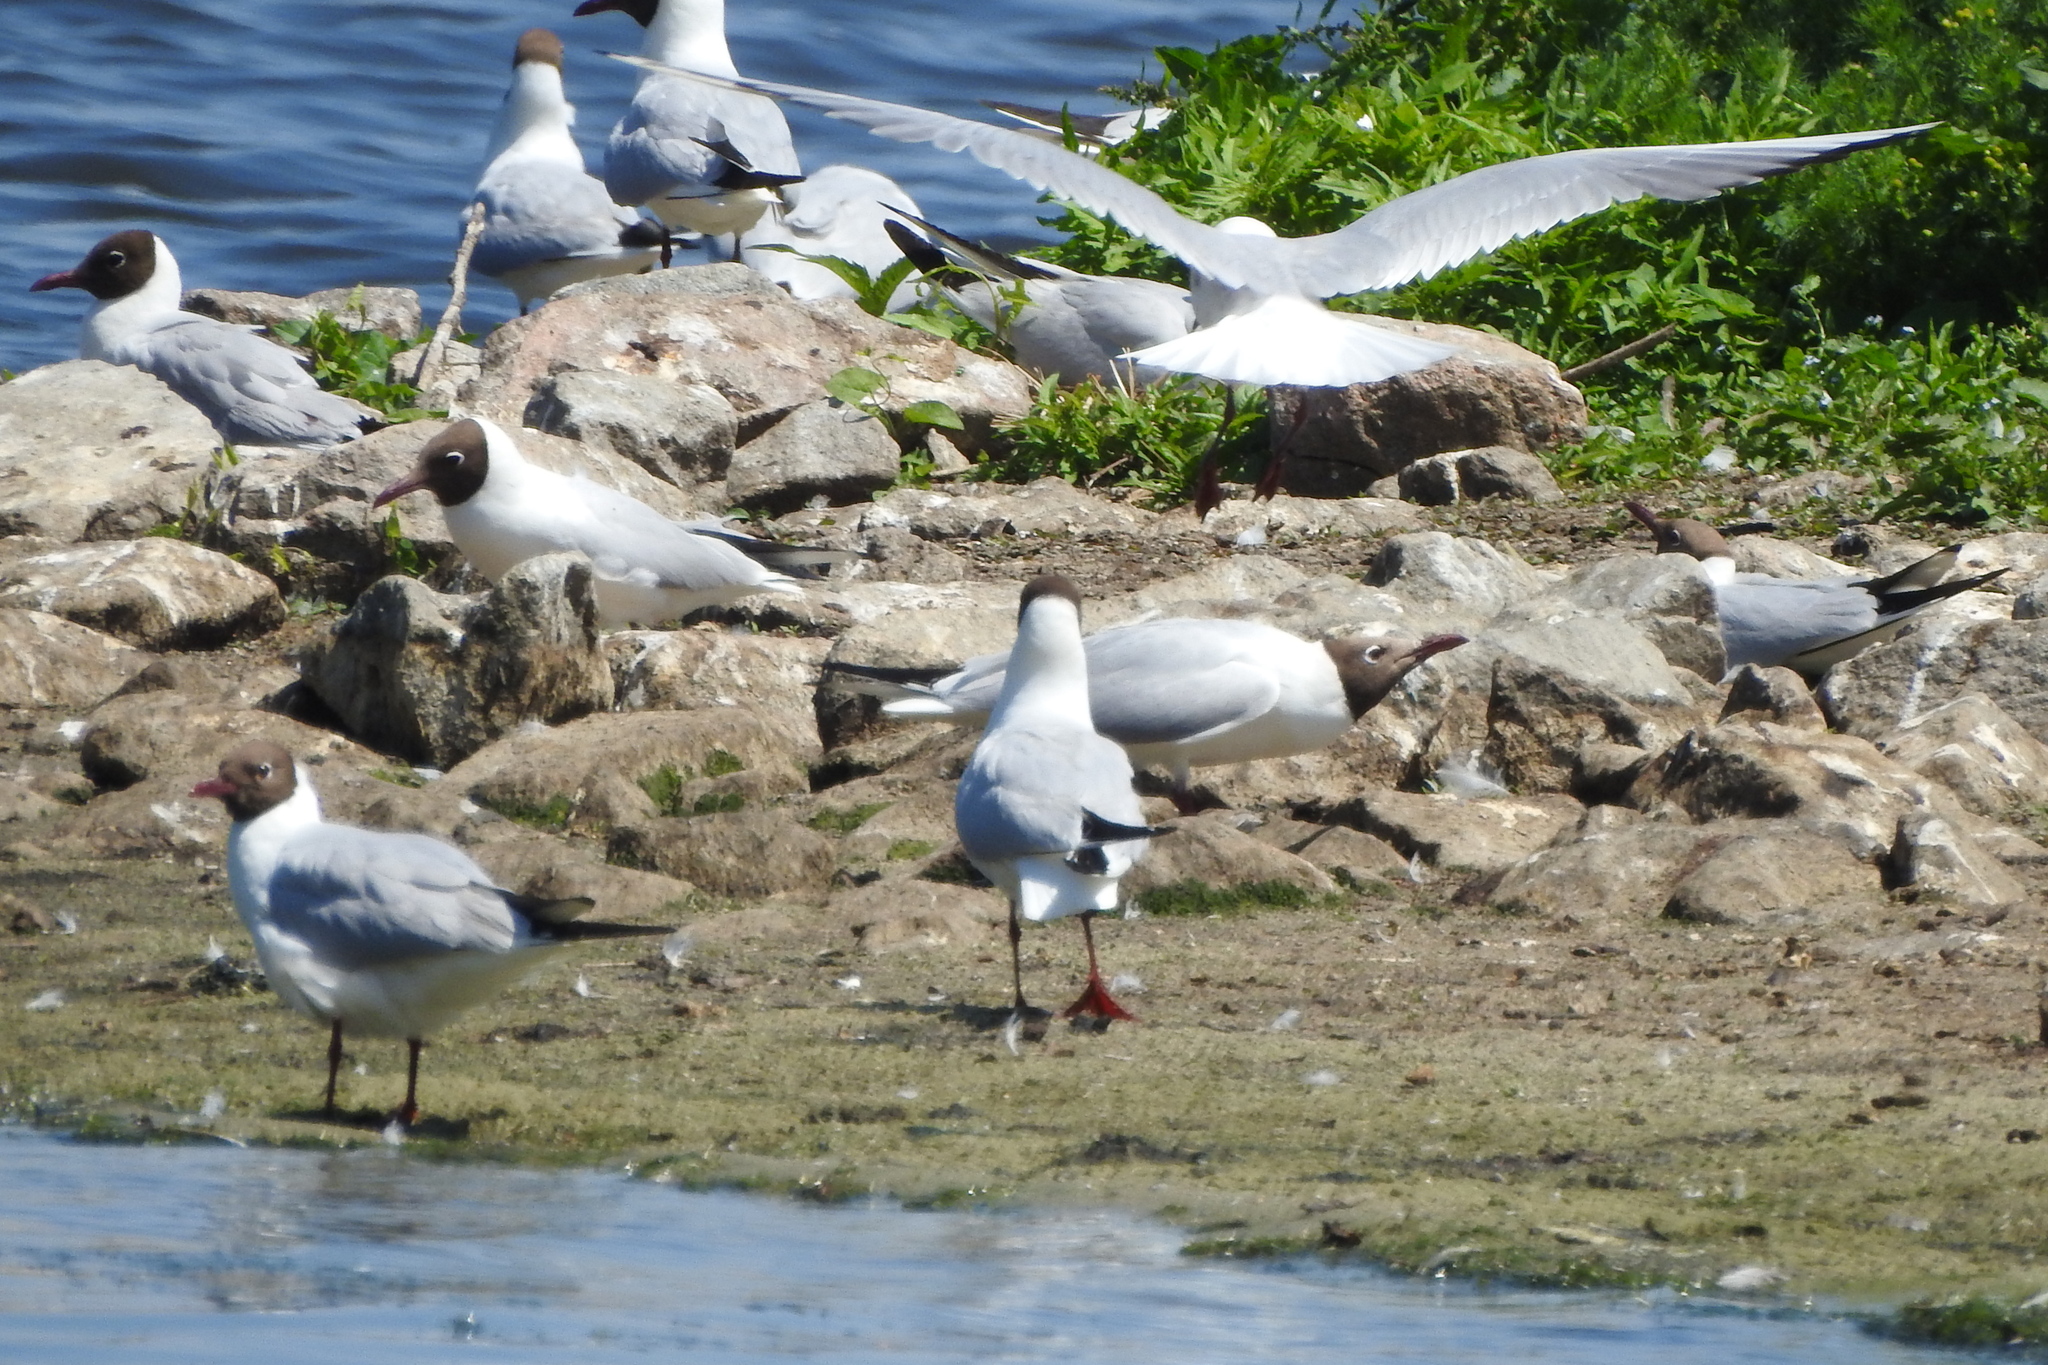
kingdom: Animalia
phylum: Chordata
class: Aves
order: Charadriiformes
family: Laridae
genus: Chroicocephalus
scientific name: Chroicocephalus ridibundus
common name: Black-headed gull
